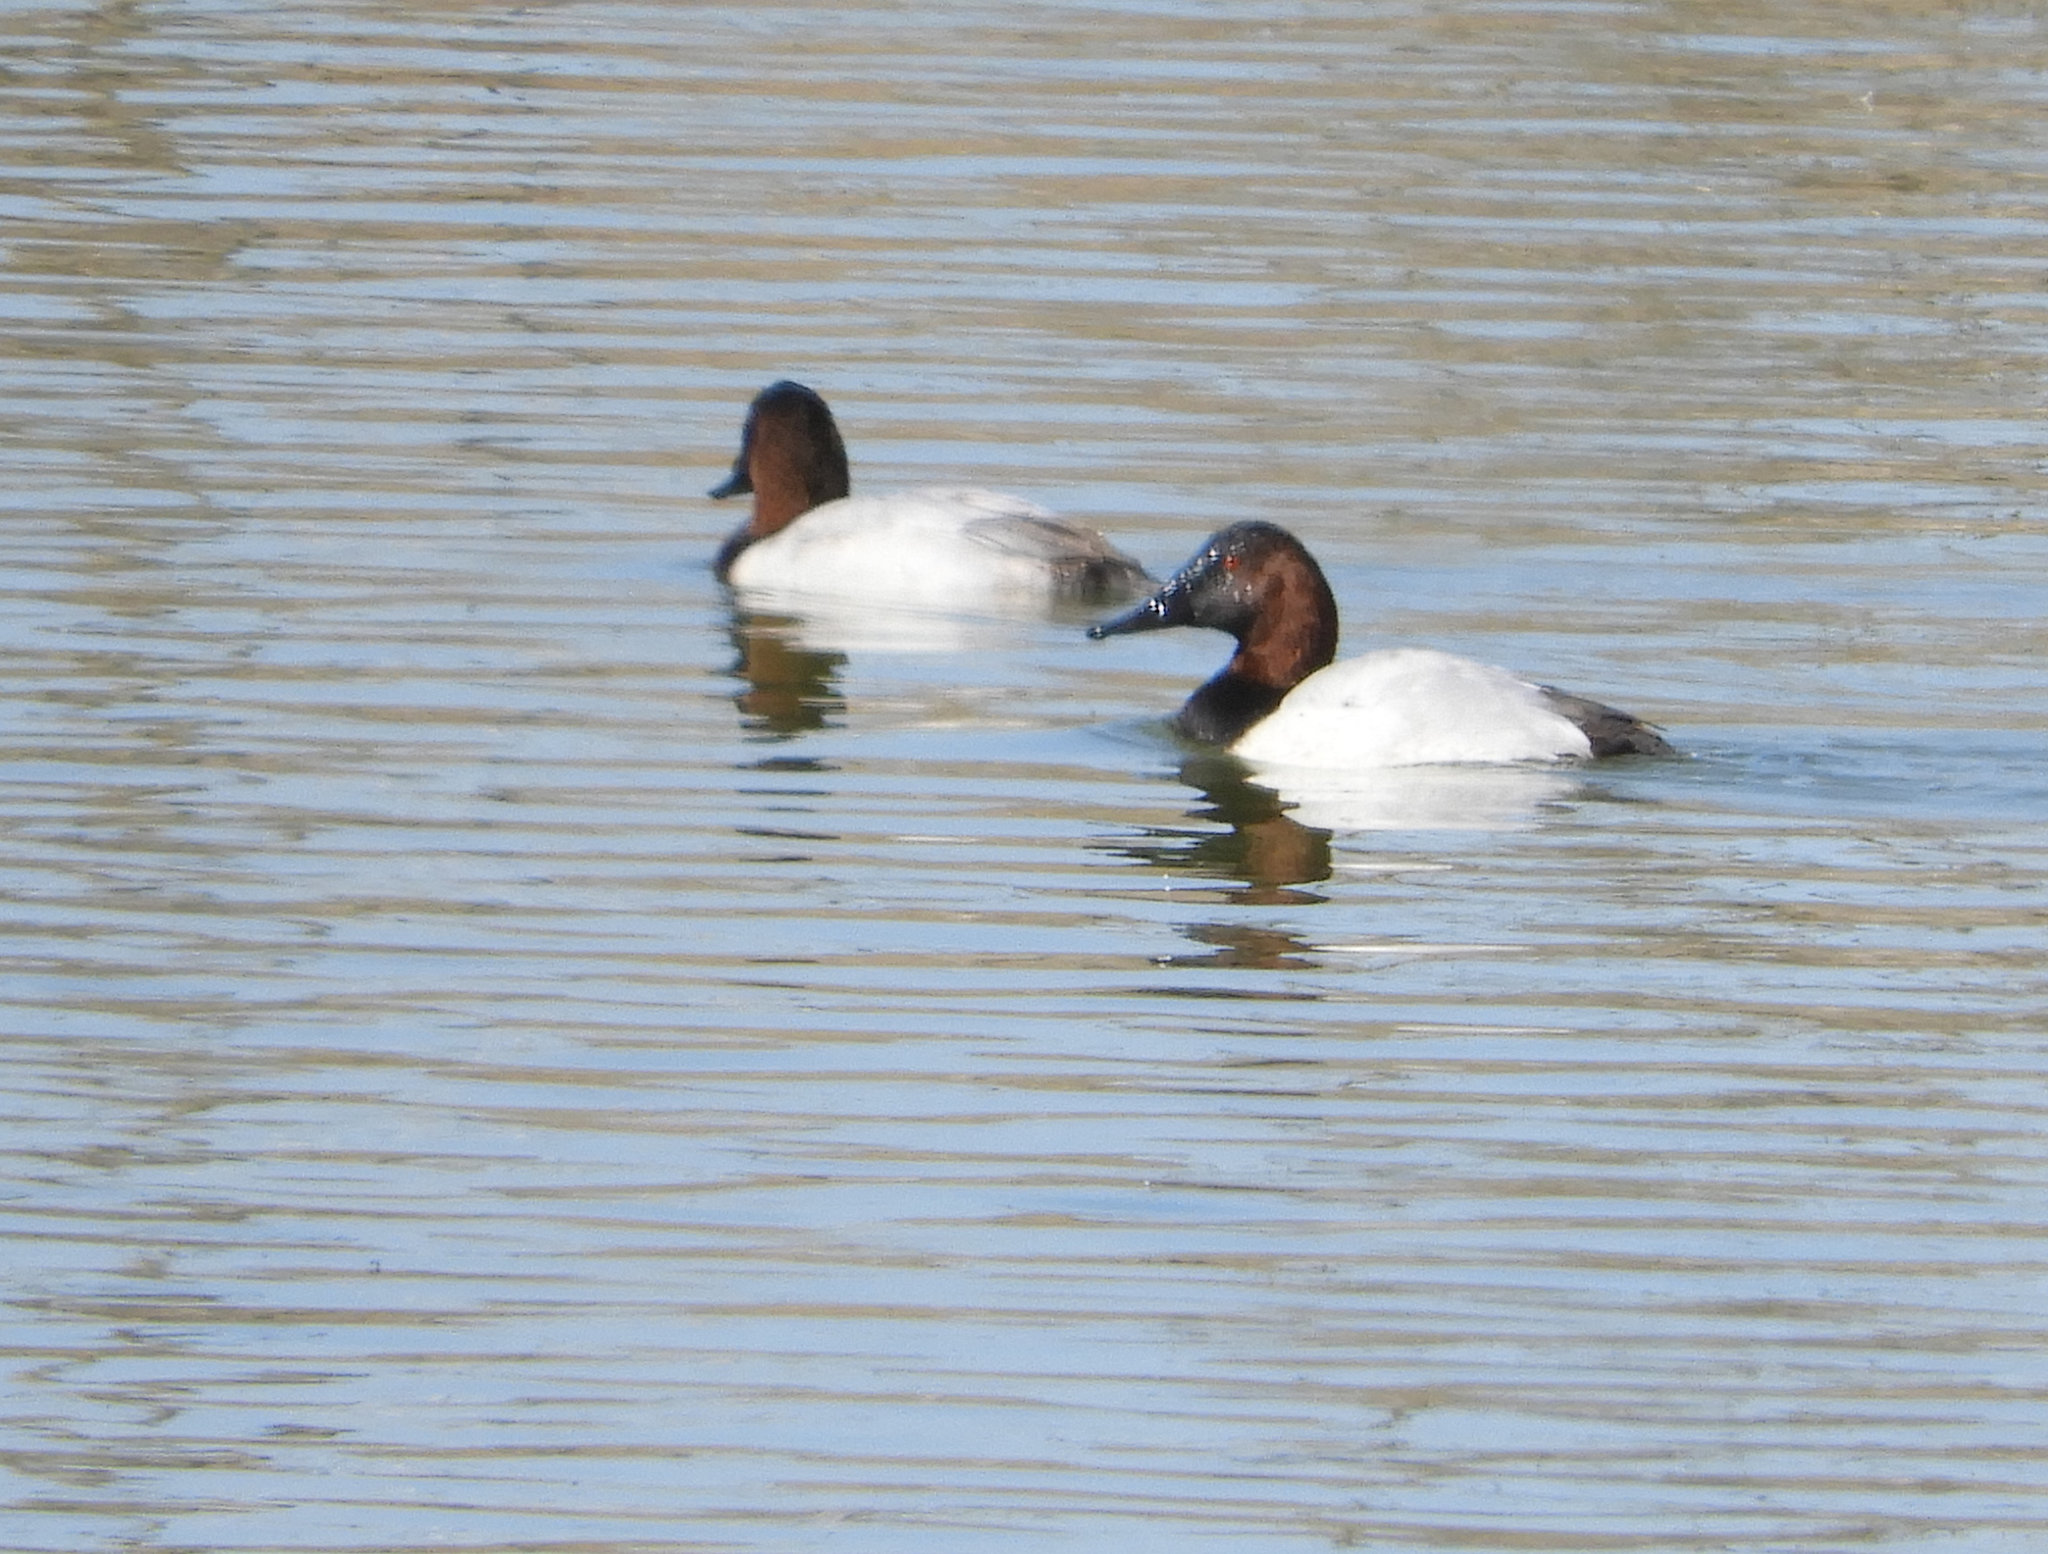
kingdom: Animalia
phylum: Chordata
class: Aves
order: Anseriformes
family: Anatidae
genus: Aythya
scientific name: Aythya valisineria
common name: Canvasback
